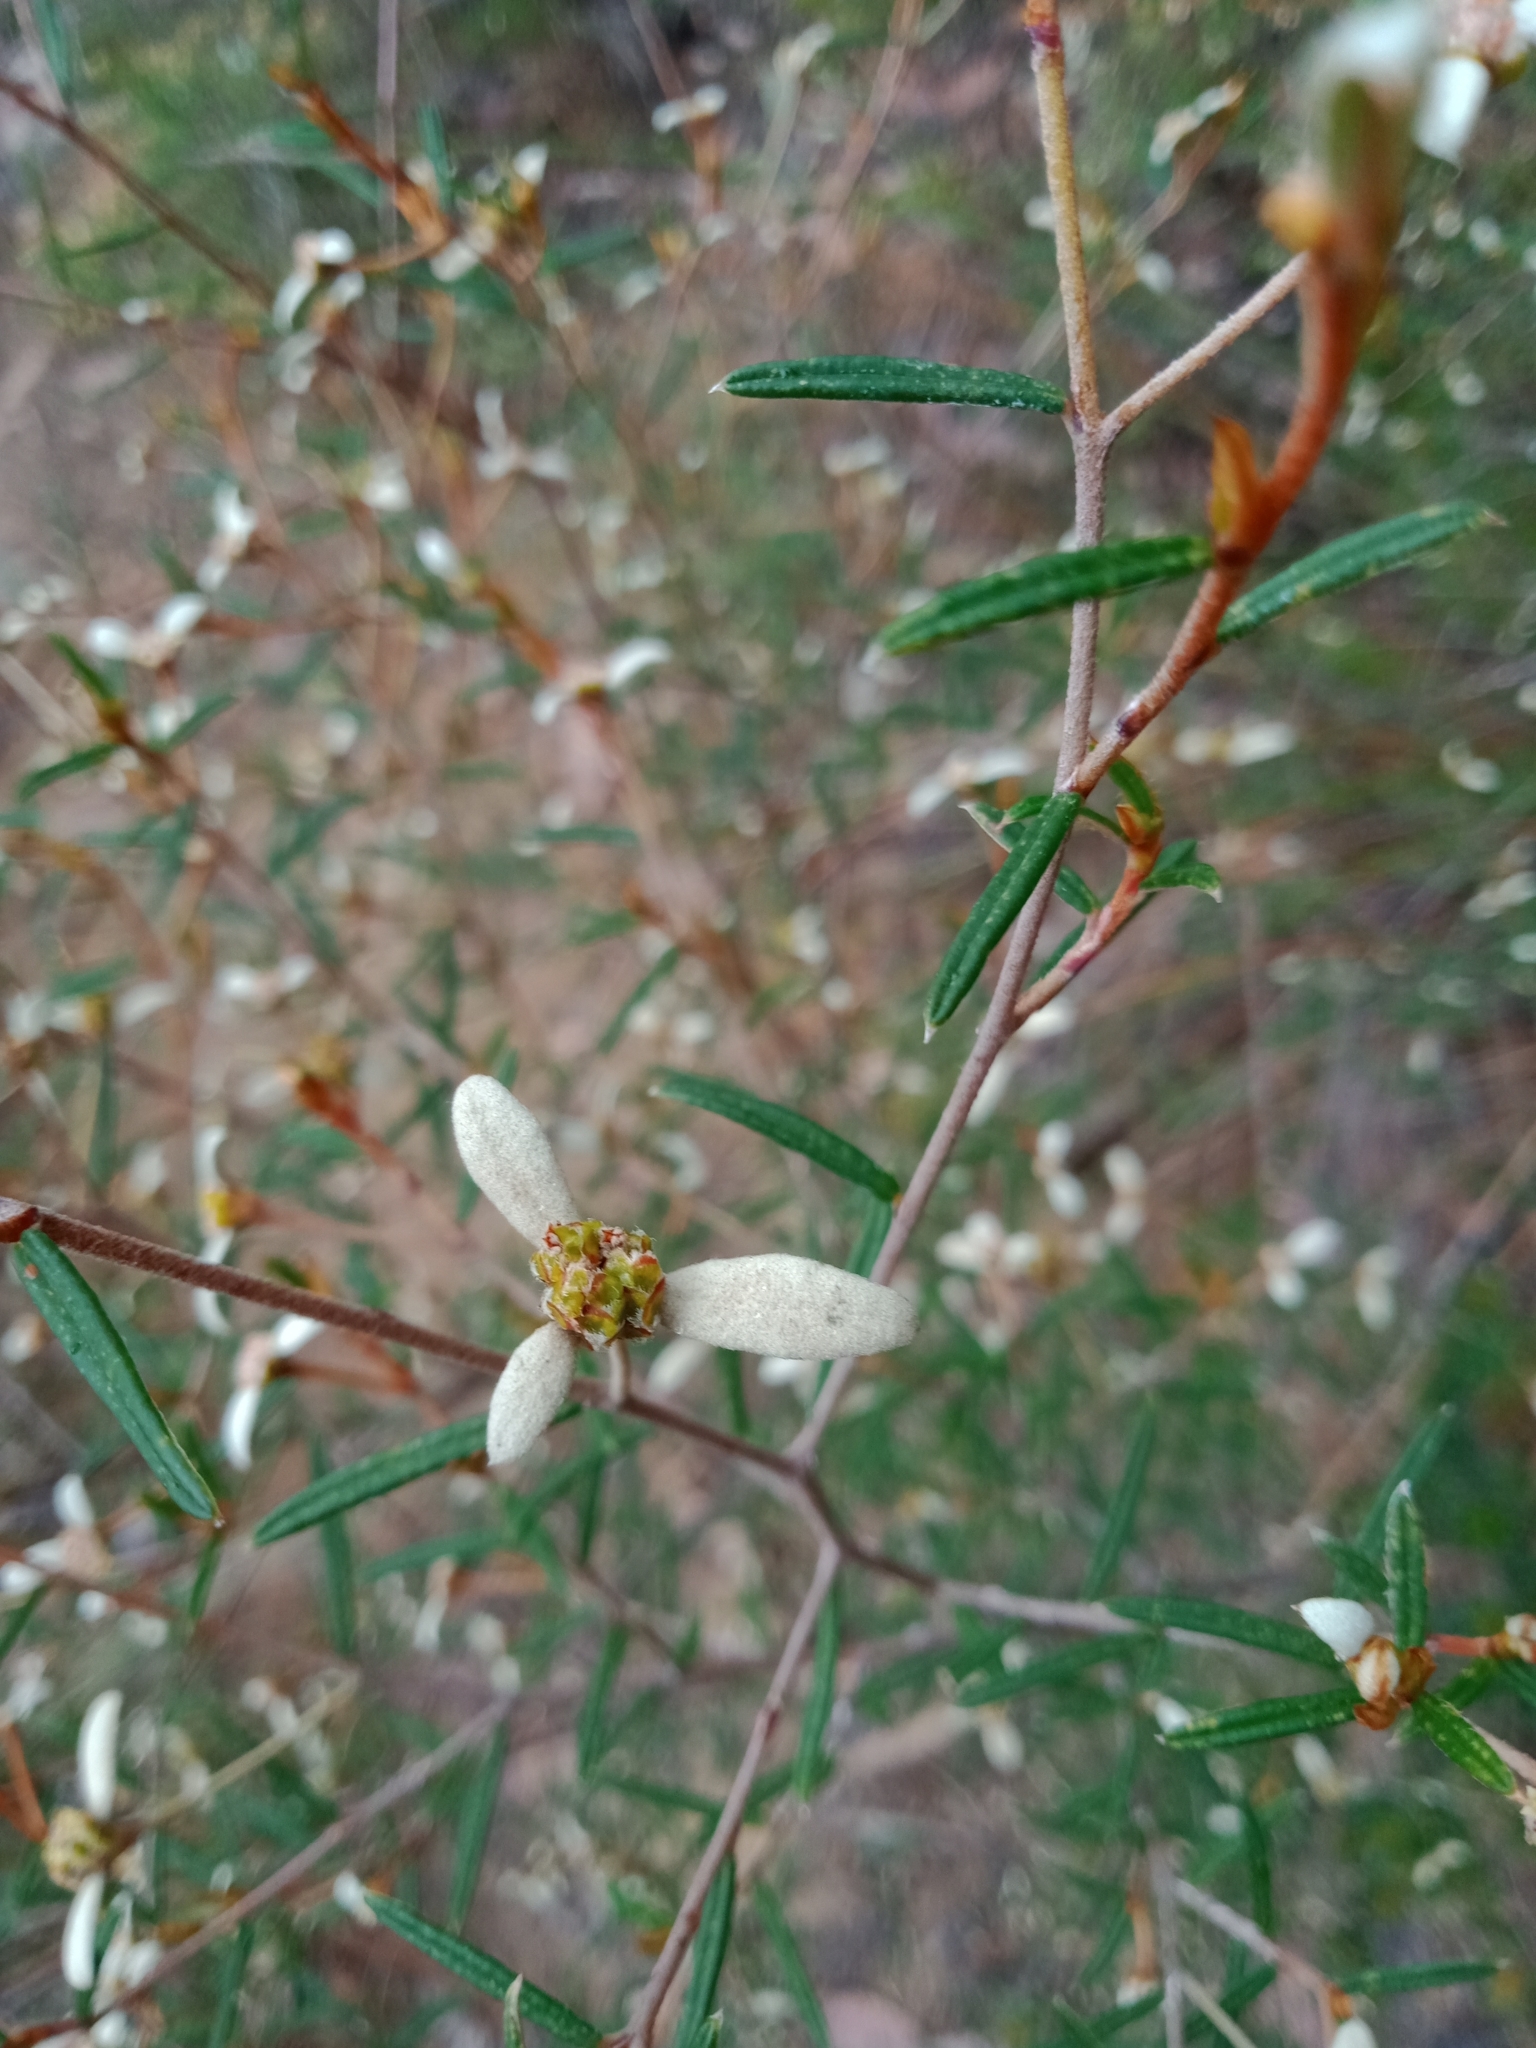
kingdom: Plantae
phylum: Tracheophyta
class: Magnoliopsida
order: Rosales
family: Rhamnaceae
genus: Spyridium
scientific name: Spyridium vexilliferum
